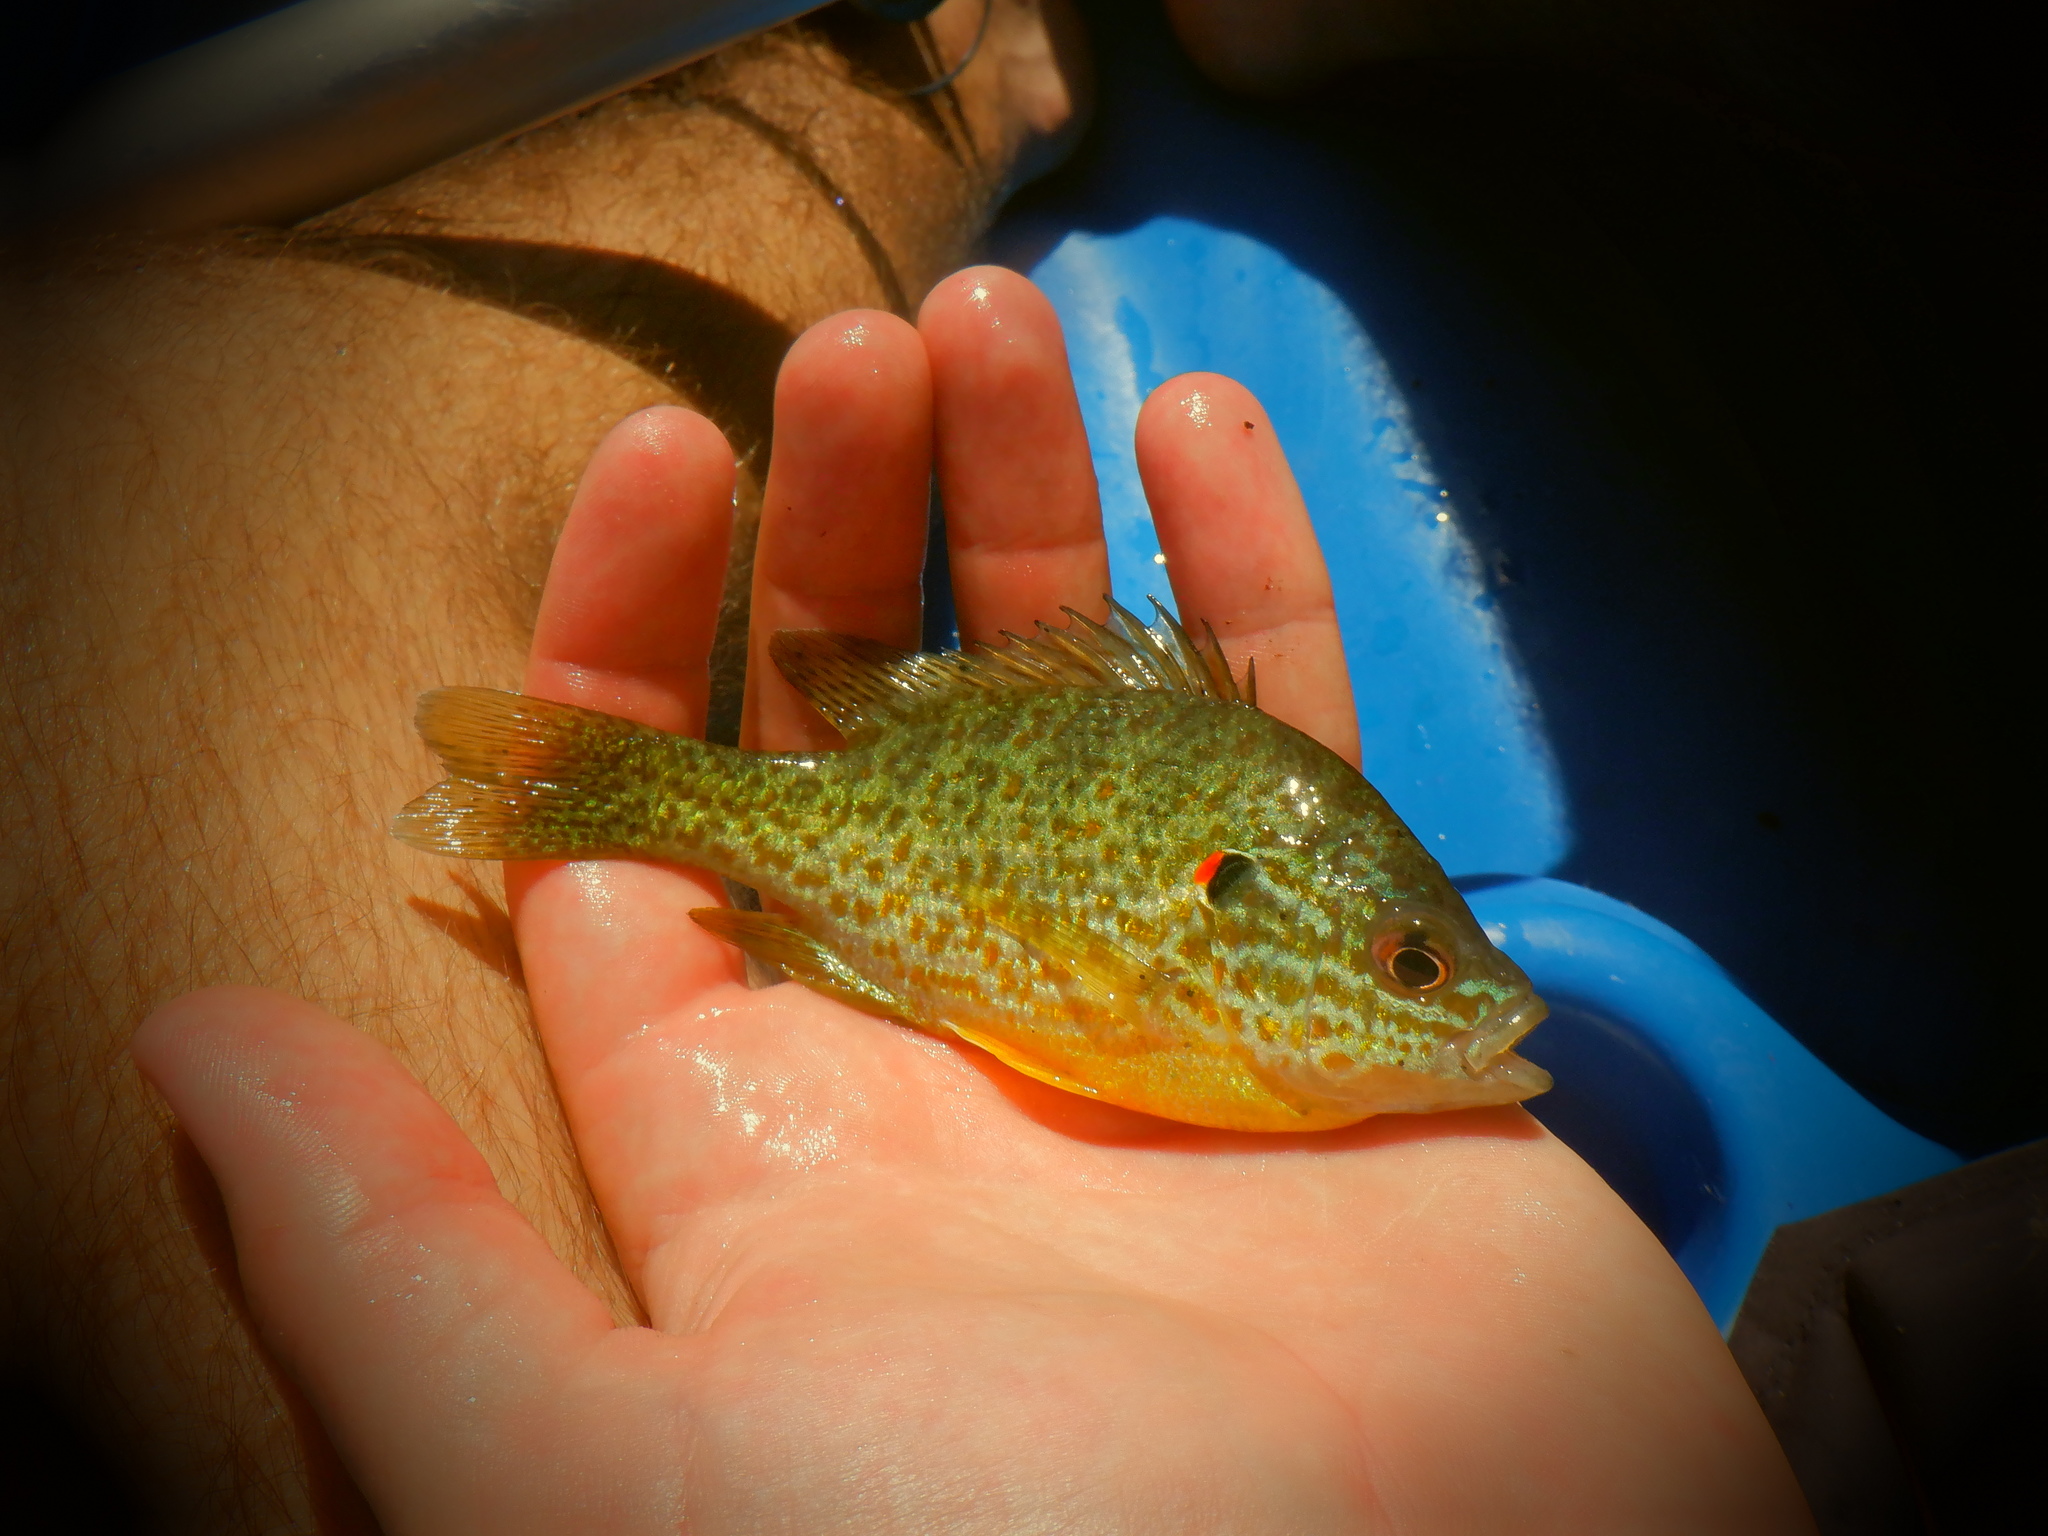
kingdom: Animalia
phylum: Chordata
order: Perciformes
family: Centrarchidae
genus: Lepomis
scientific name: Lepomis gibbosus
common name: Pumpkinseed
